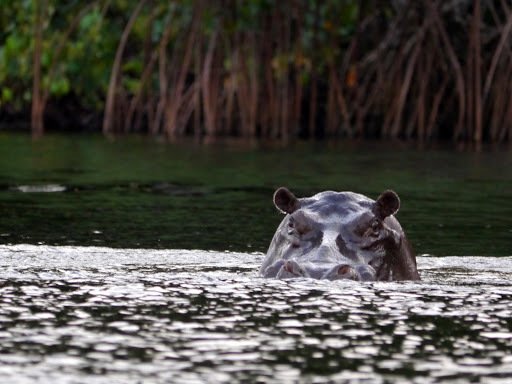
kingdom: Animalia
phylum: Chordata
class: Mammalia
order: Artiodactyla
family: Hippopotamidae
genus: Hippopotamus
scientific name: Hippopotamus amphibius
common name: Common hippopotamus
